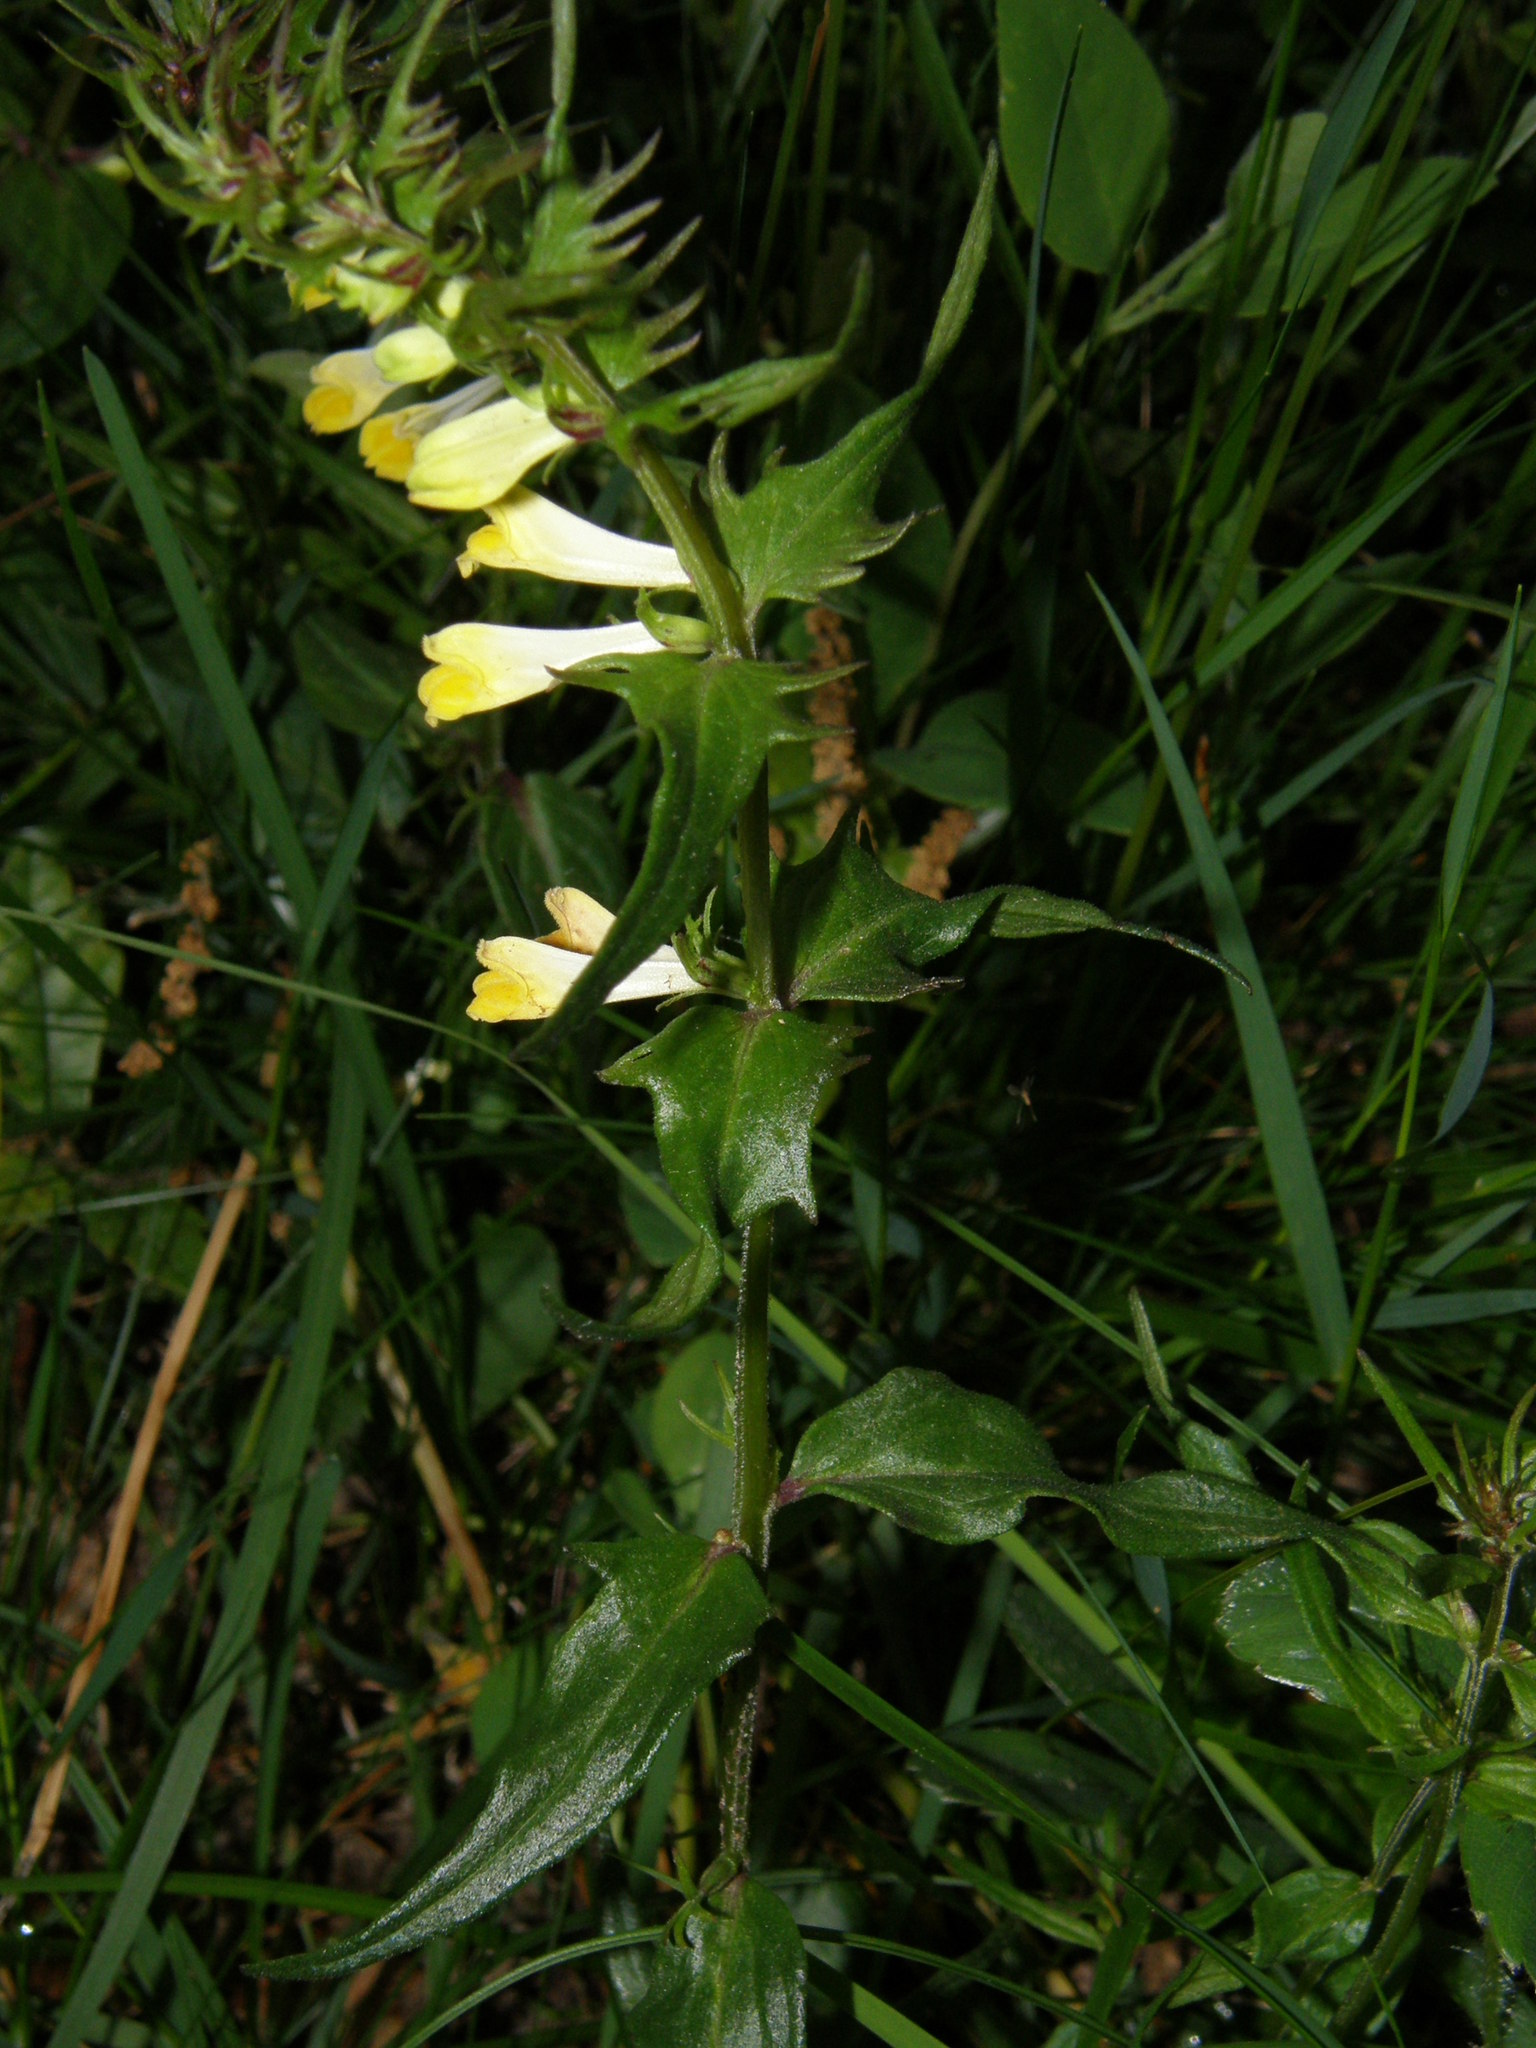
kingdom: Plantae
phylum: Tracheophyta
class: Magnoliopsida
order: Lamiales
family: Orobanchaceae
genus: Melampyrum
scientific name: Melampyrum pratense
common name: Common cow-wheat
